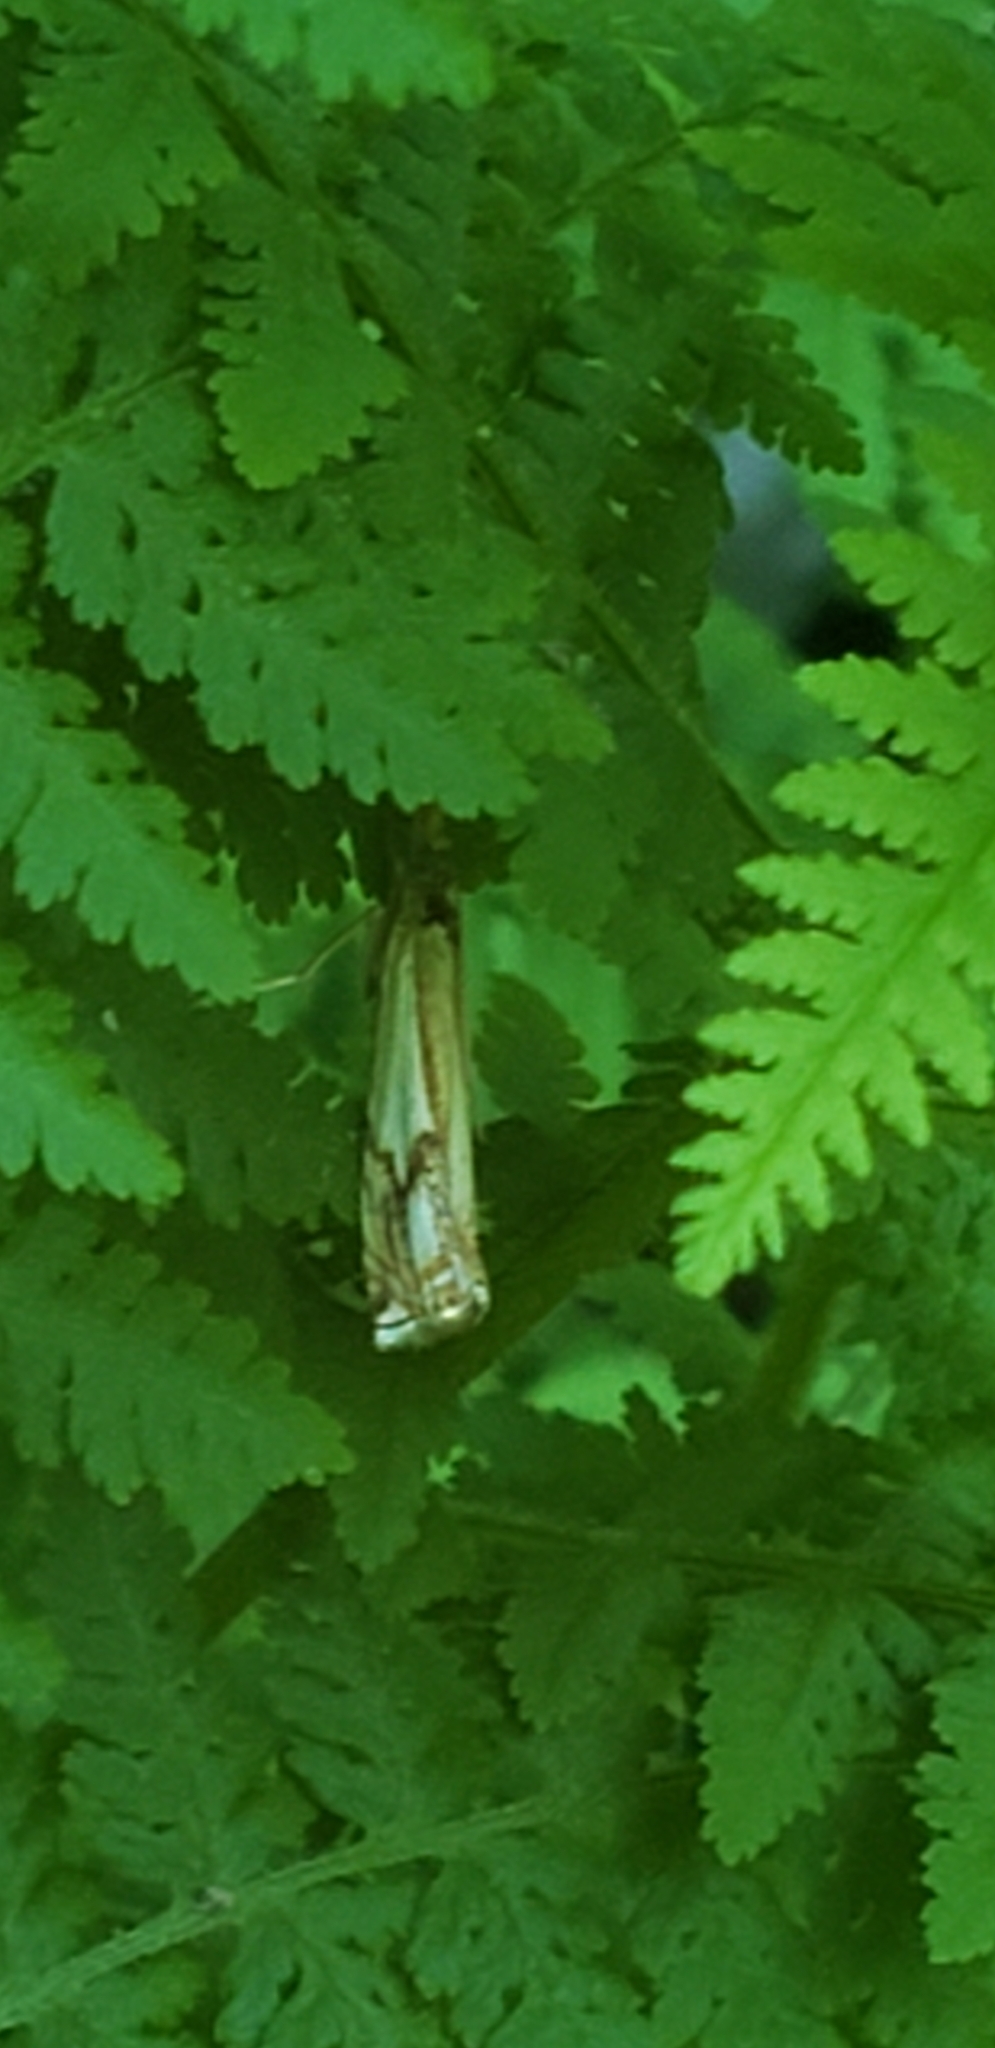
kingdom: Animalia
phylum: Arthropoda
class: Insecta
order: Lepidoptera
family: Crambidae
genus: Crambus
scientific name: Crambus agitatellus
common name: Double-banded grass-veneer
